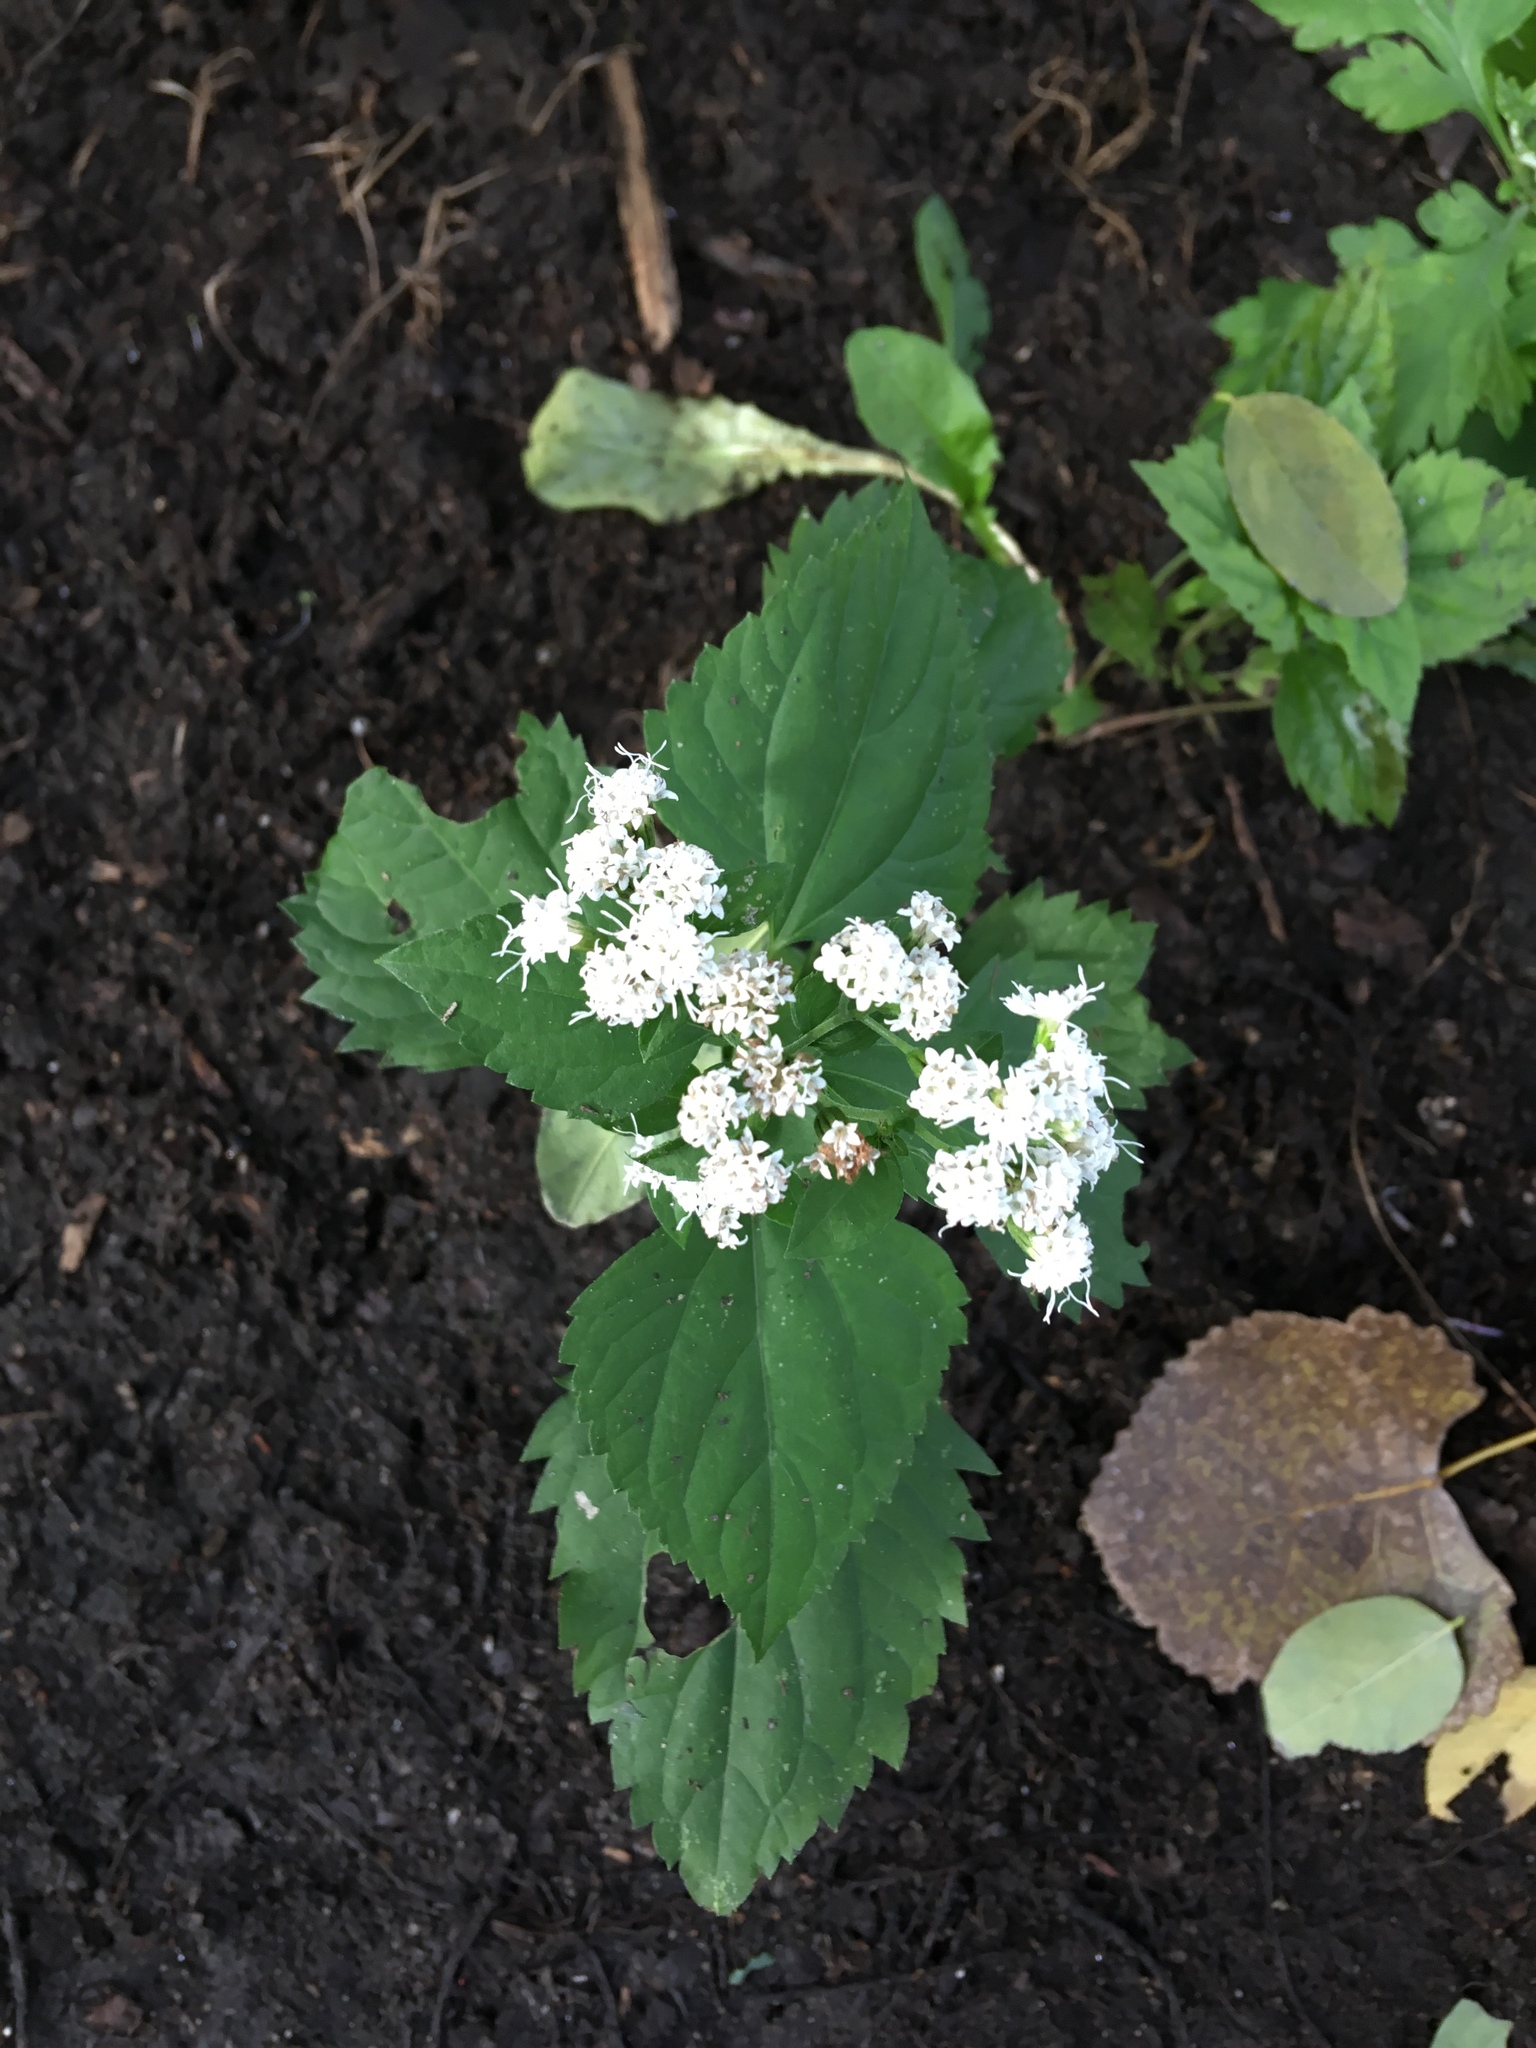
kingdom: Plantae
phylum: Tracheophyta
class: Magnoliopsida
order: Asterales
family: Asteraceae
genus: Ageratina
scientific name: Ageratina altissima
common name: White snakeroot
